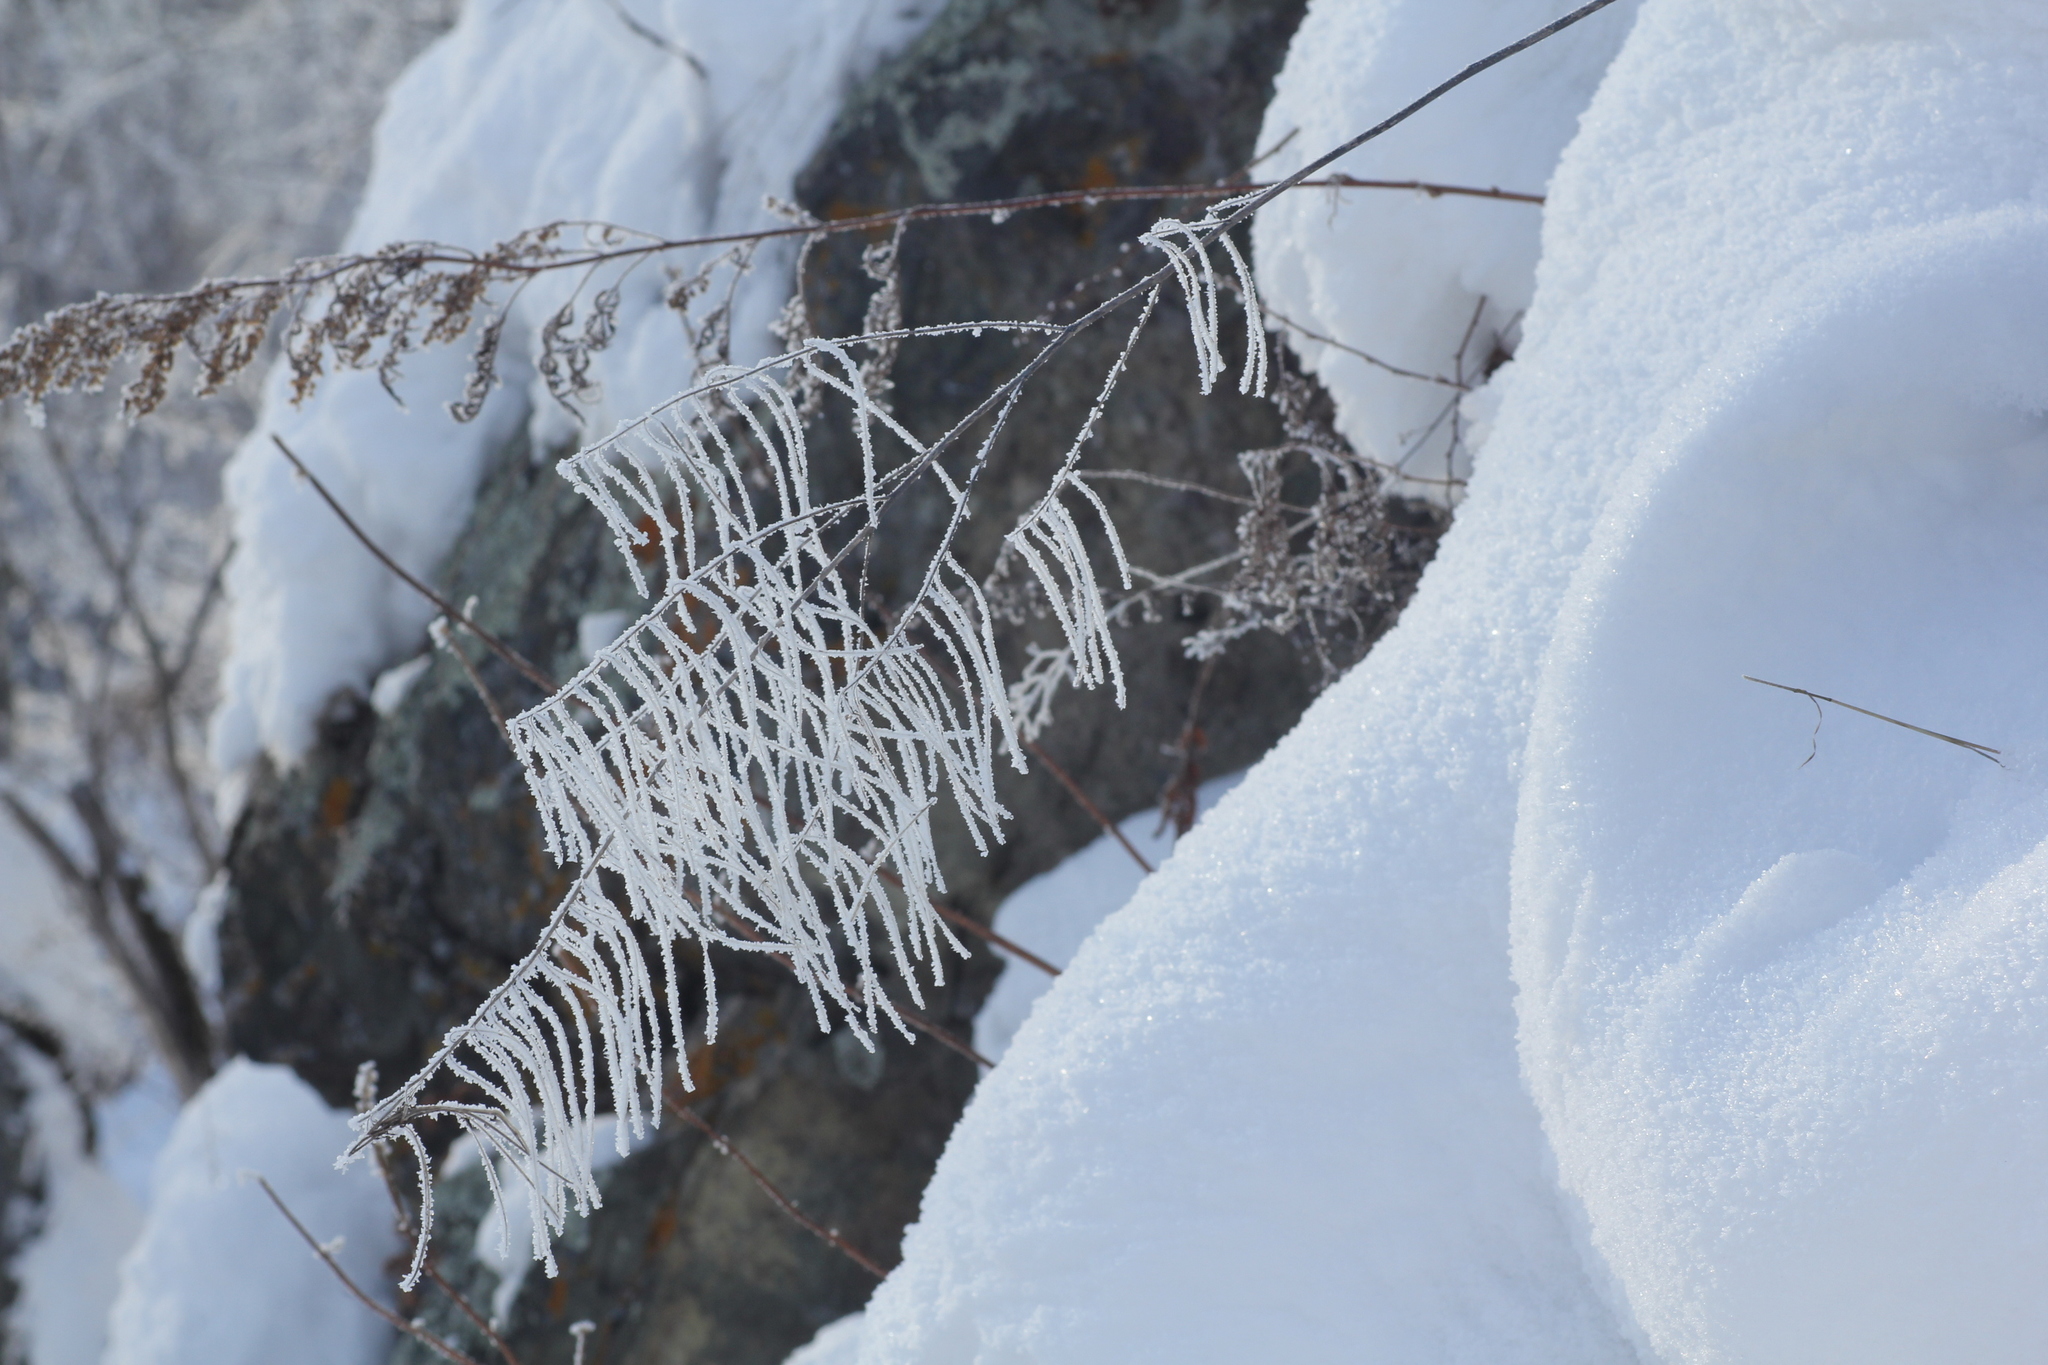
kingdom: Plantae
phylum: Tracheophyta
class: Magnoliopsida
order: Brassicales
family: Brassicaceae
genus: Catolobus
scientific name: Catolobus pendulus
